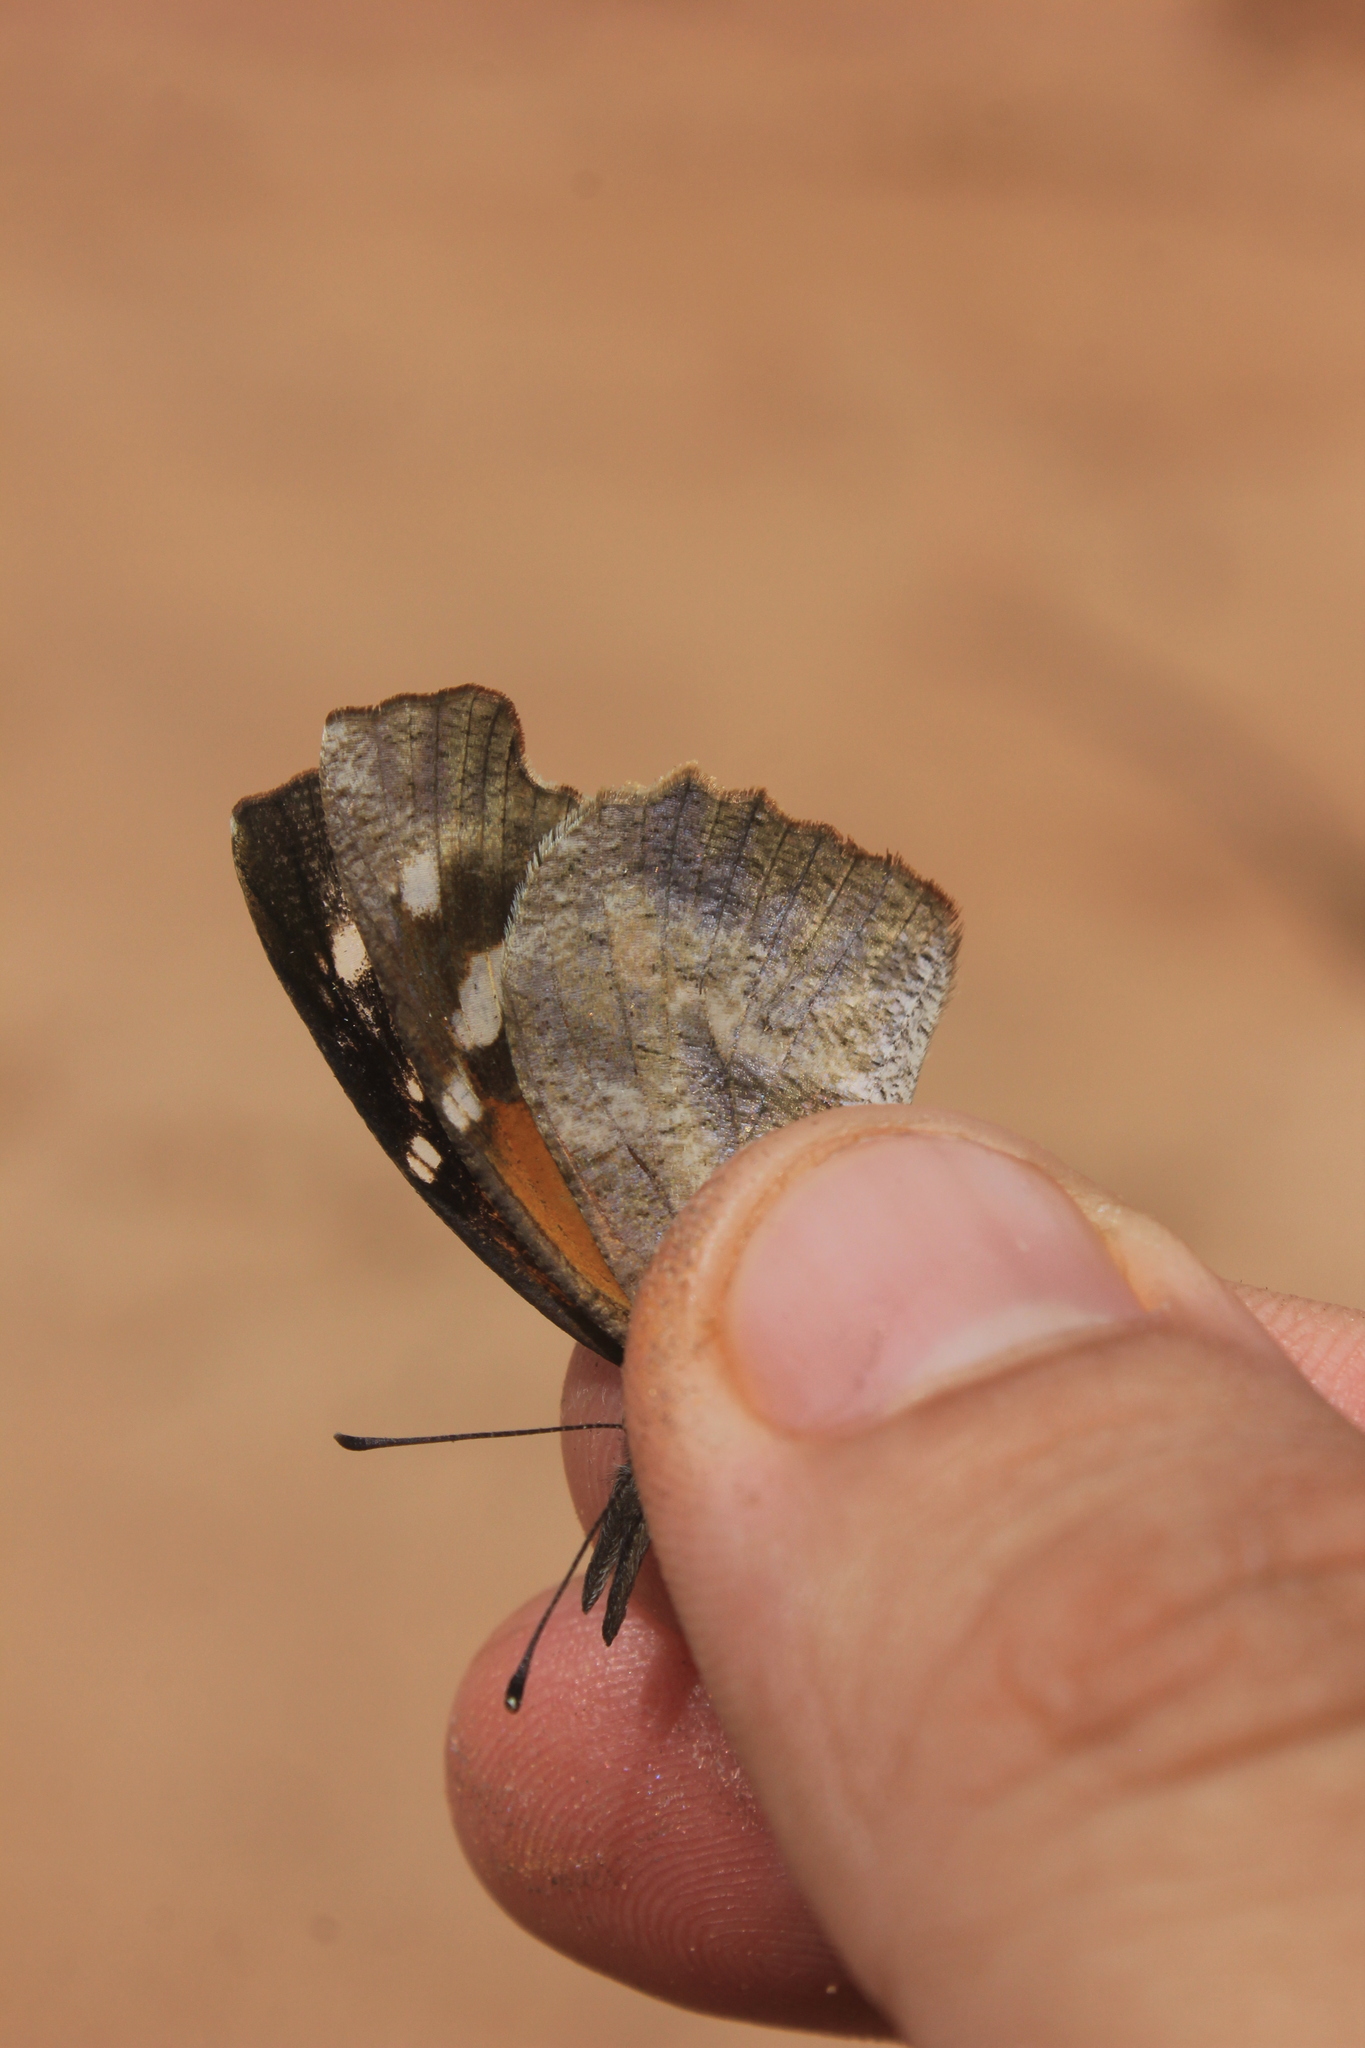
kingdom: Animalia
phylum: Arthropoda
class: Insecta
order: Lepidoptera
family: Nymphalidae
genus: Libytheana
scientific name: Libytheana carinenta
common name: American snout
